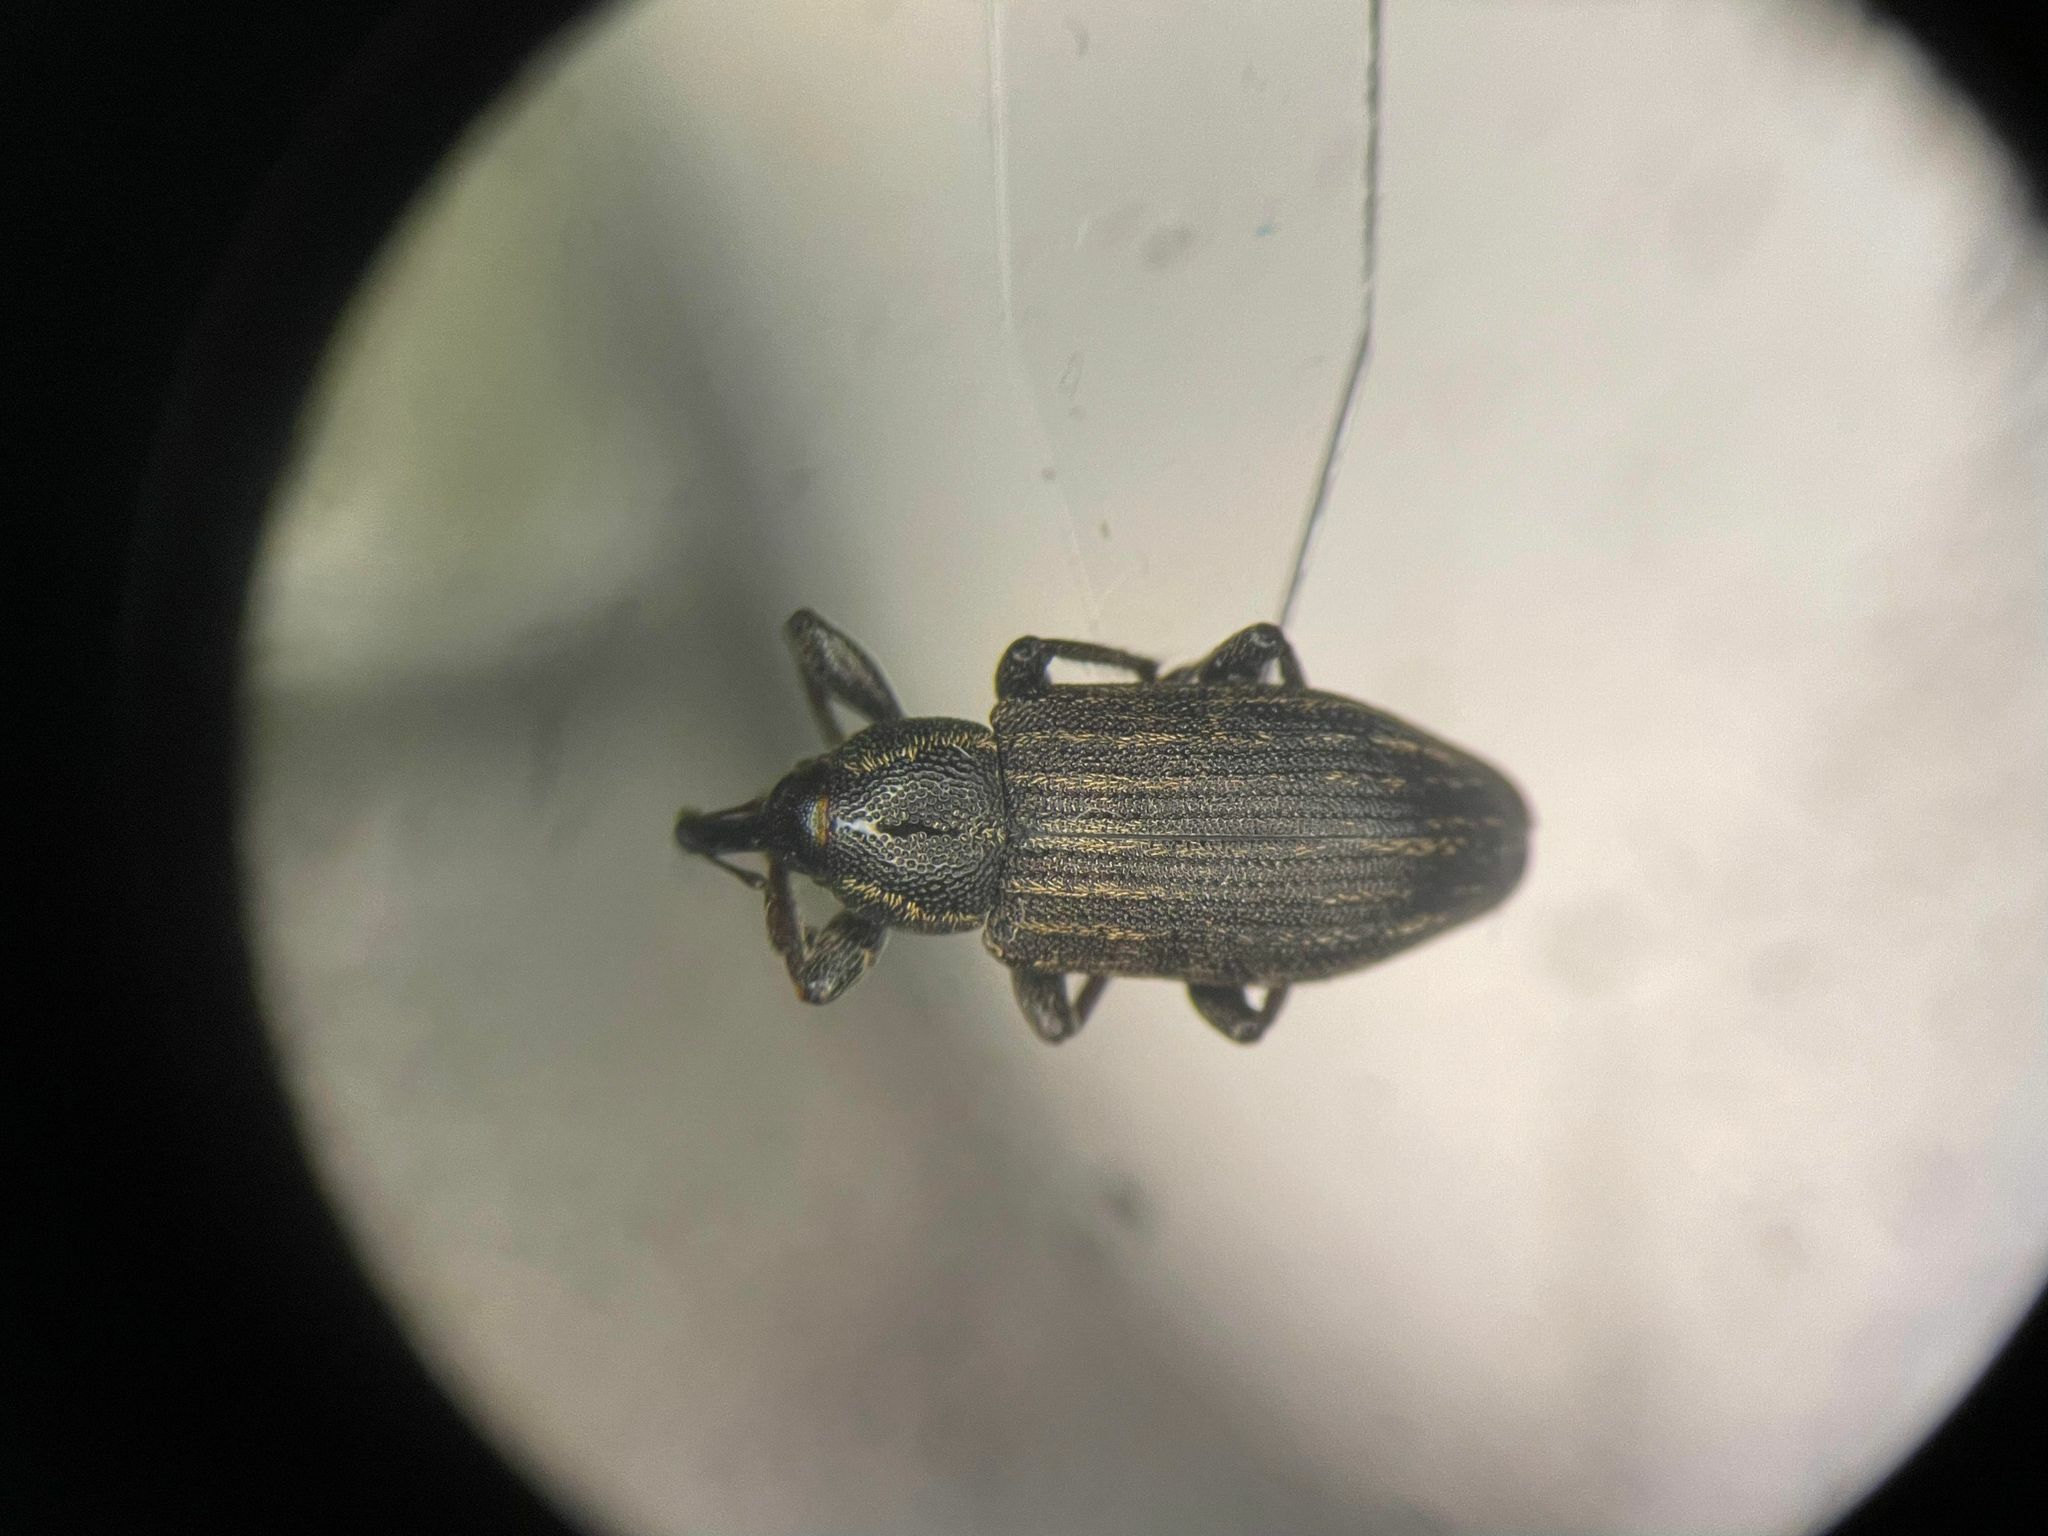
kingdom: Animalia
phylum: Arthropoda
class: Insecta
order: Coleoptera
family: Brachyceridae
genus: Tournotaris
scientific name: Tournotaris bimaculata
